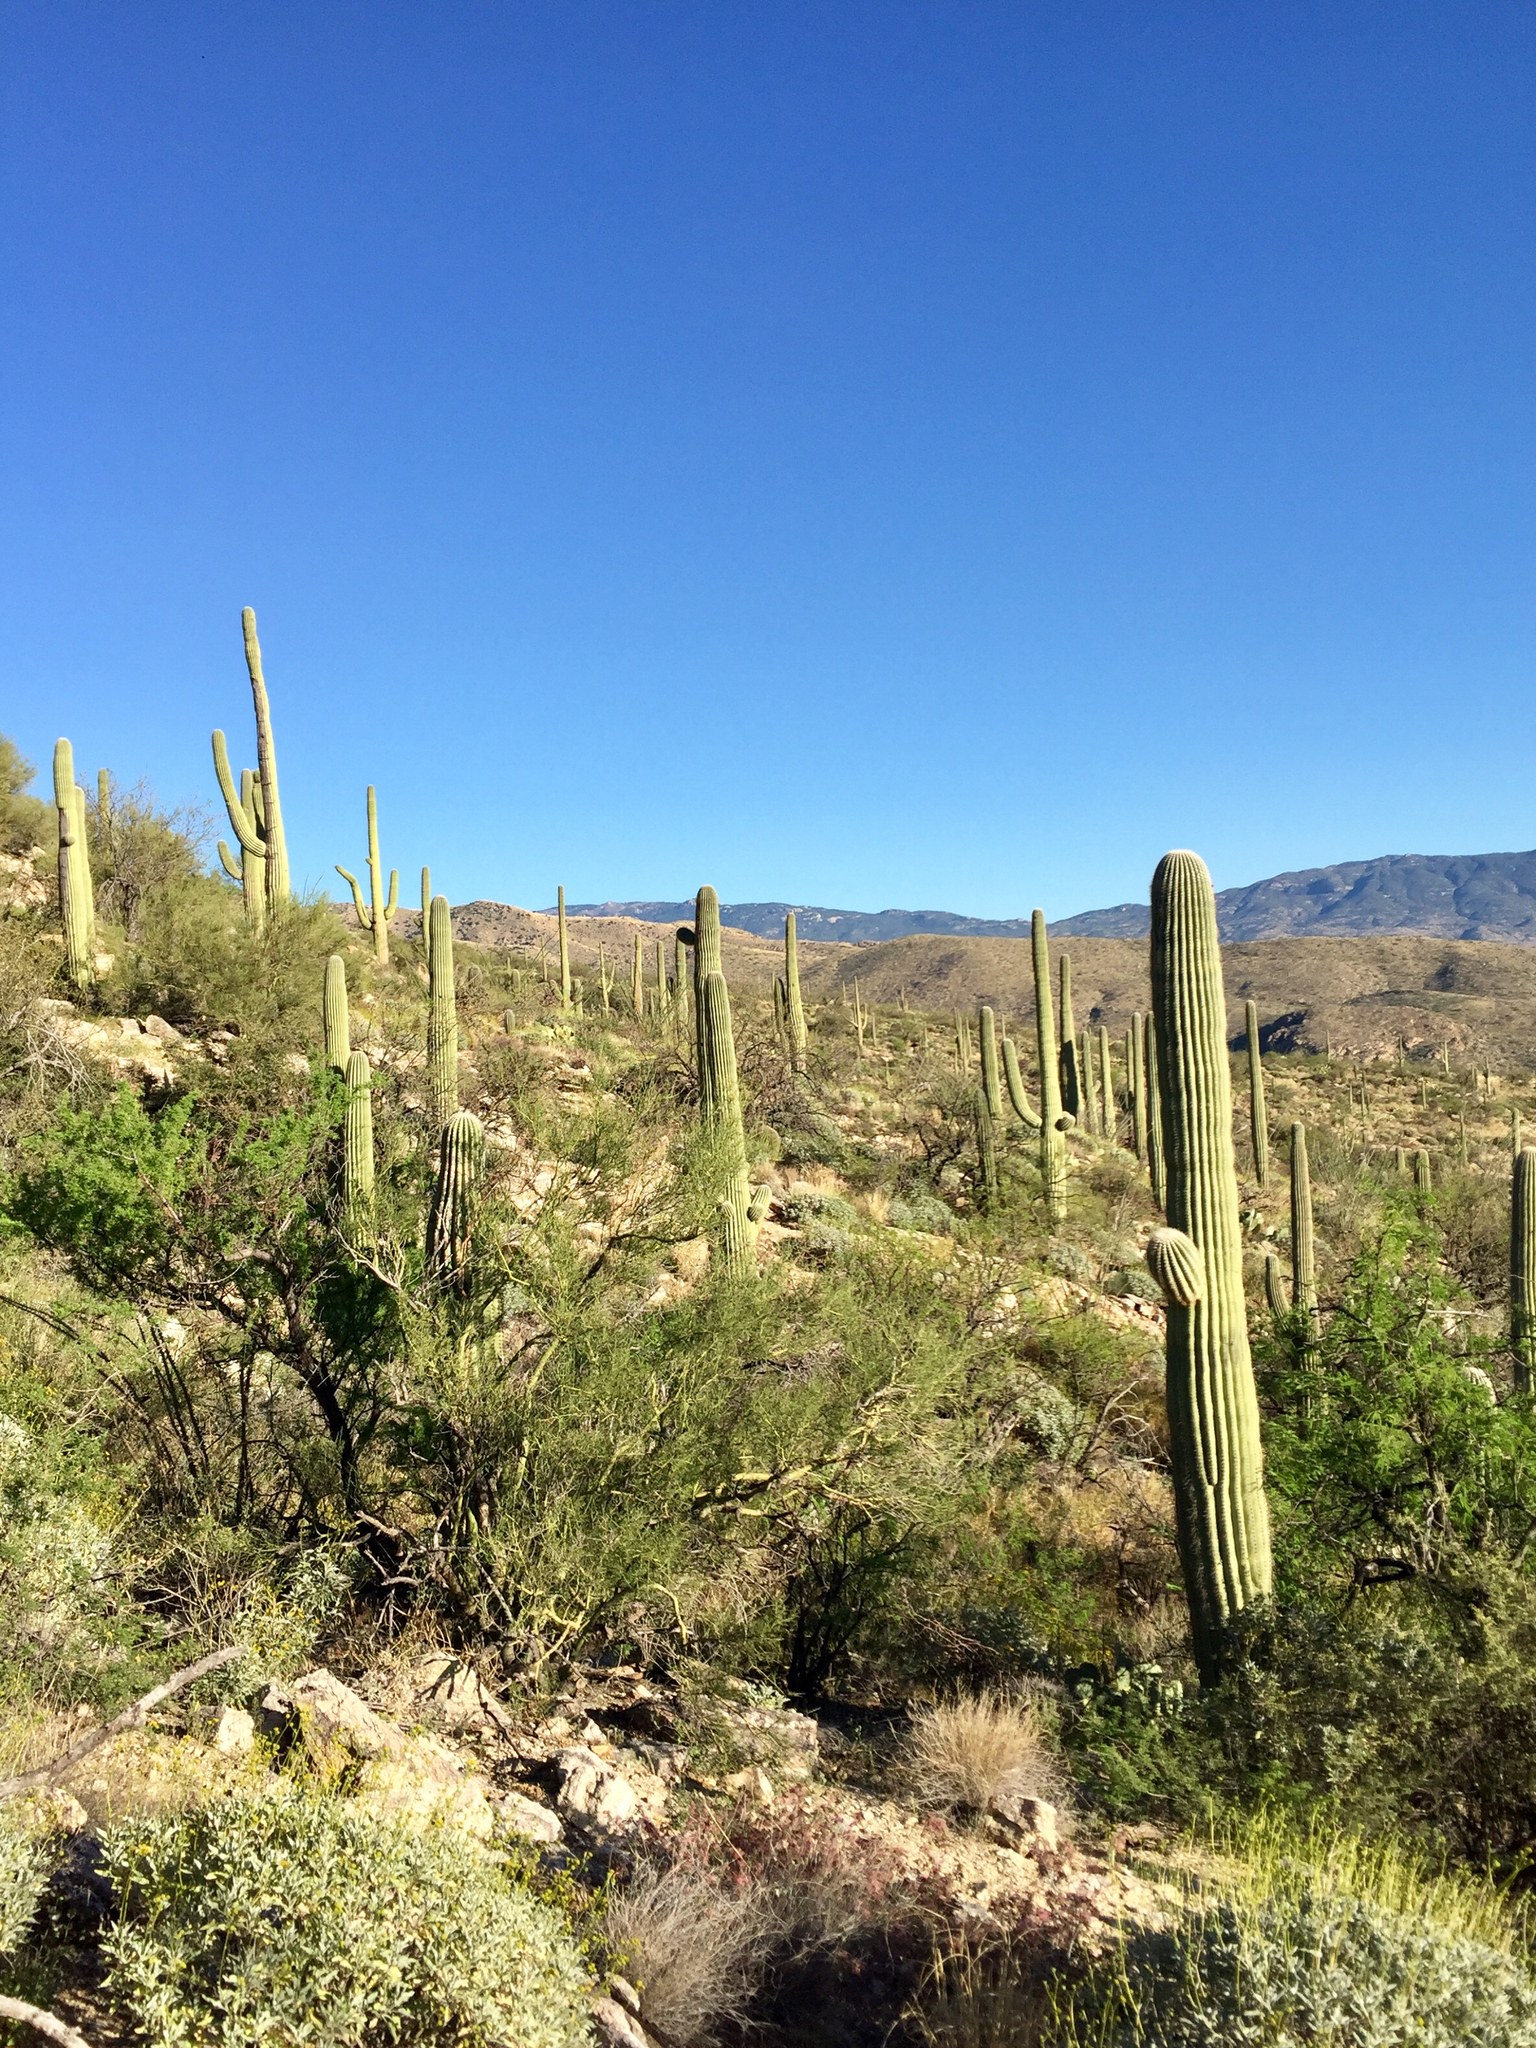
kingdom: Plantae
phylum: Tracheophyta
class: Magnoliopsida
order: Fabales
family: Fabaceae
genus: Parkinsonia
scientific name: Parkinsonia microphylla
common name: Yellow paloverde
